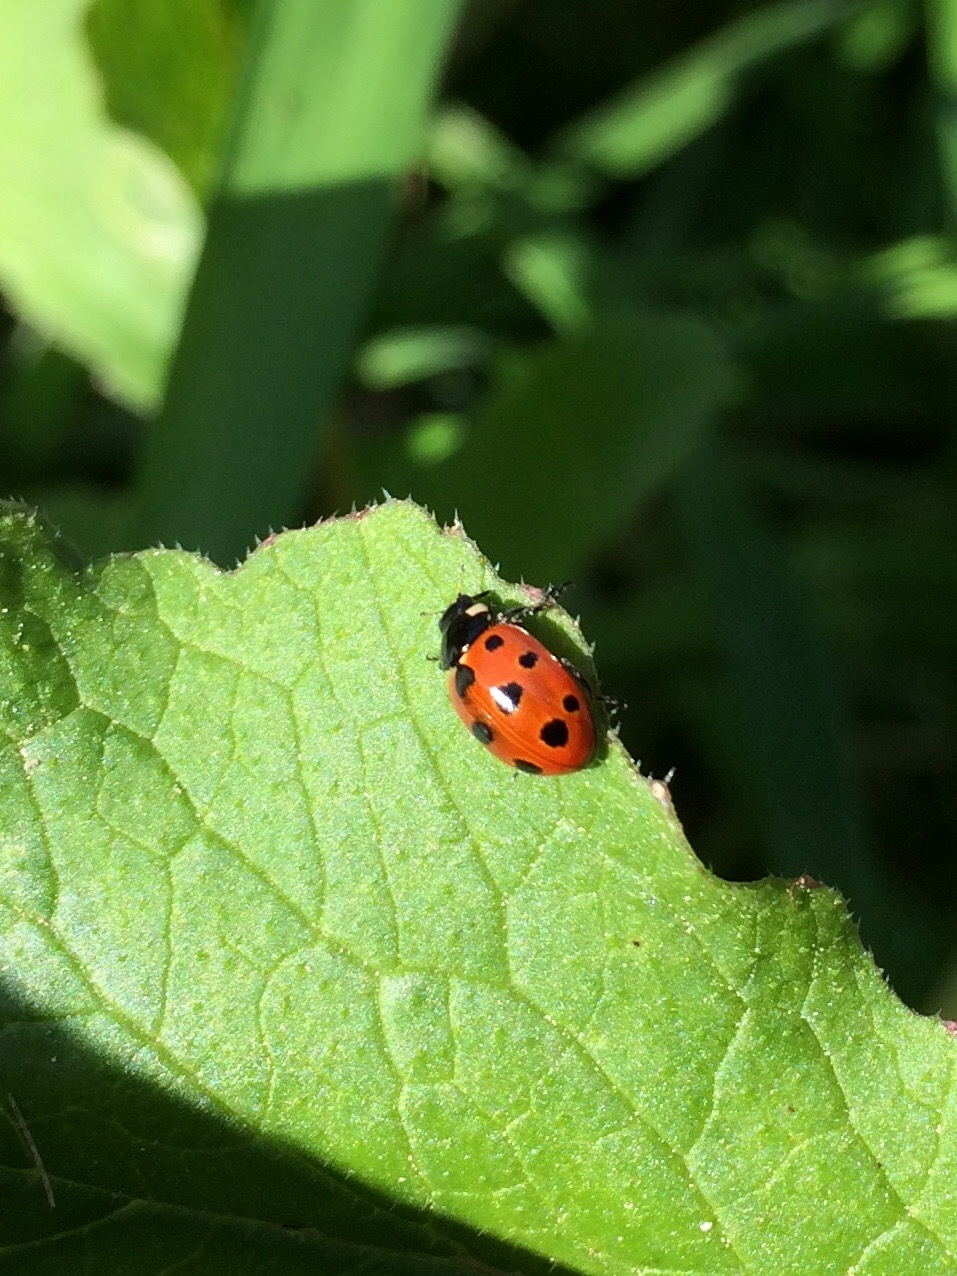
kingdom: Animalia
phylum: Arthropoda
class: Insecta
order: Coleoptera
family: Coccinellidae
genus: Coccinella
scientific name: Coccinella undecimpunctata
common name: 11-spot ladybird
